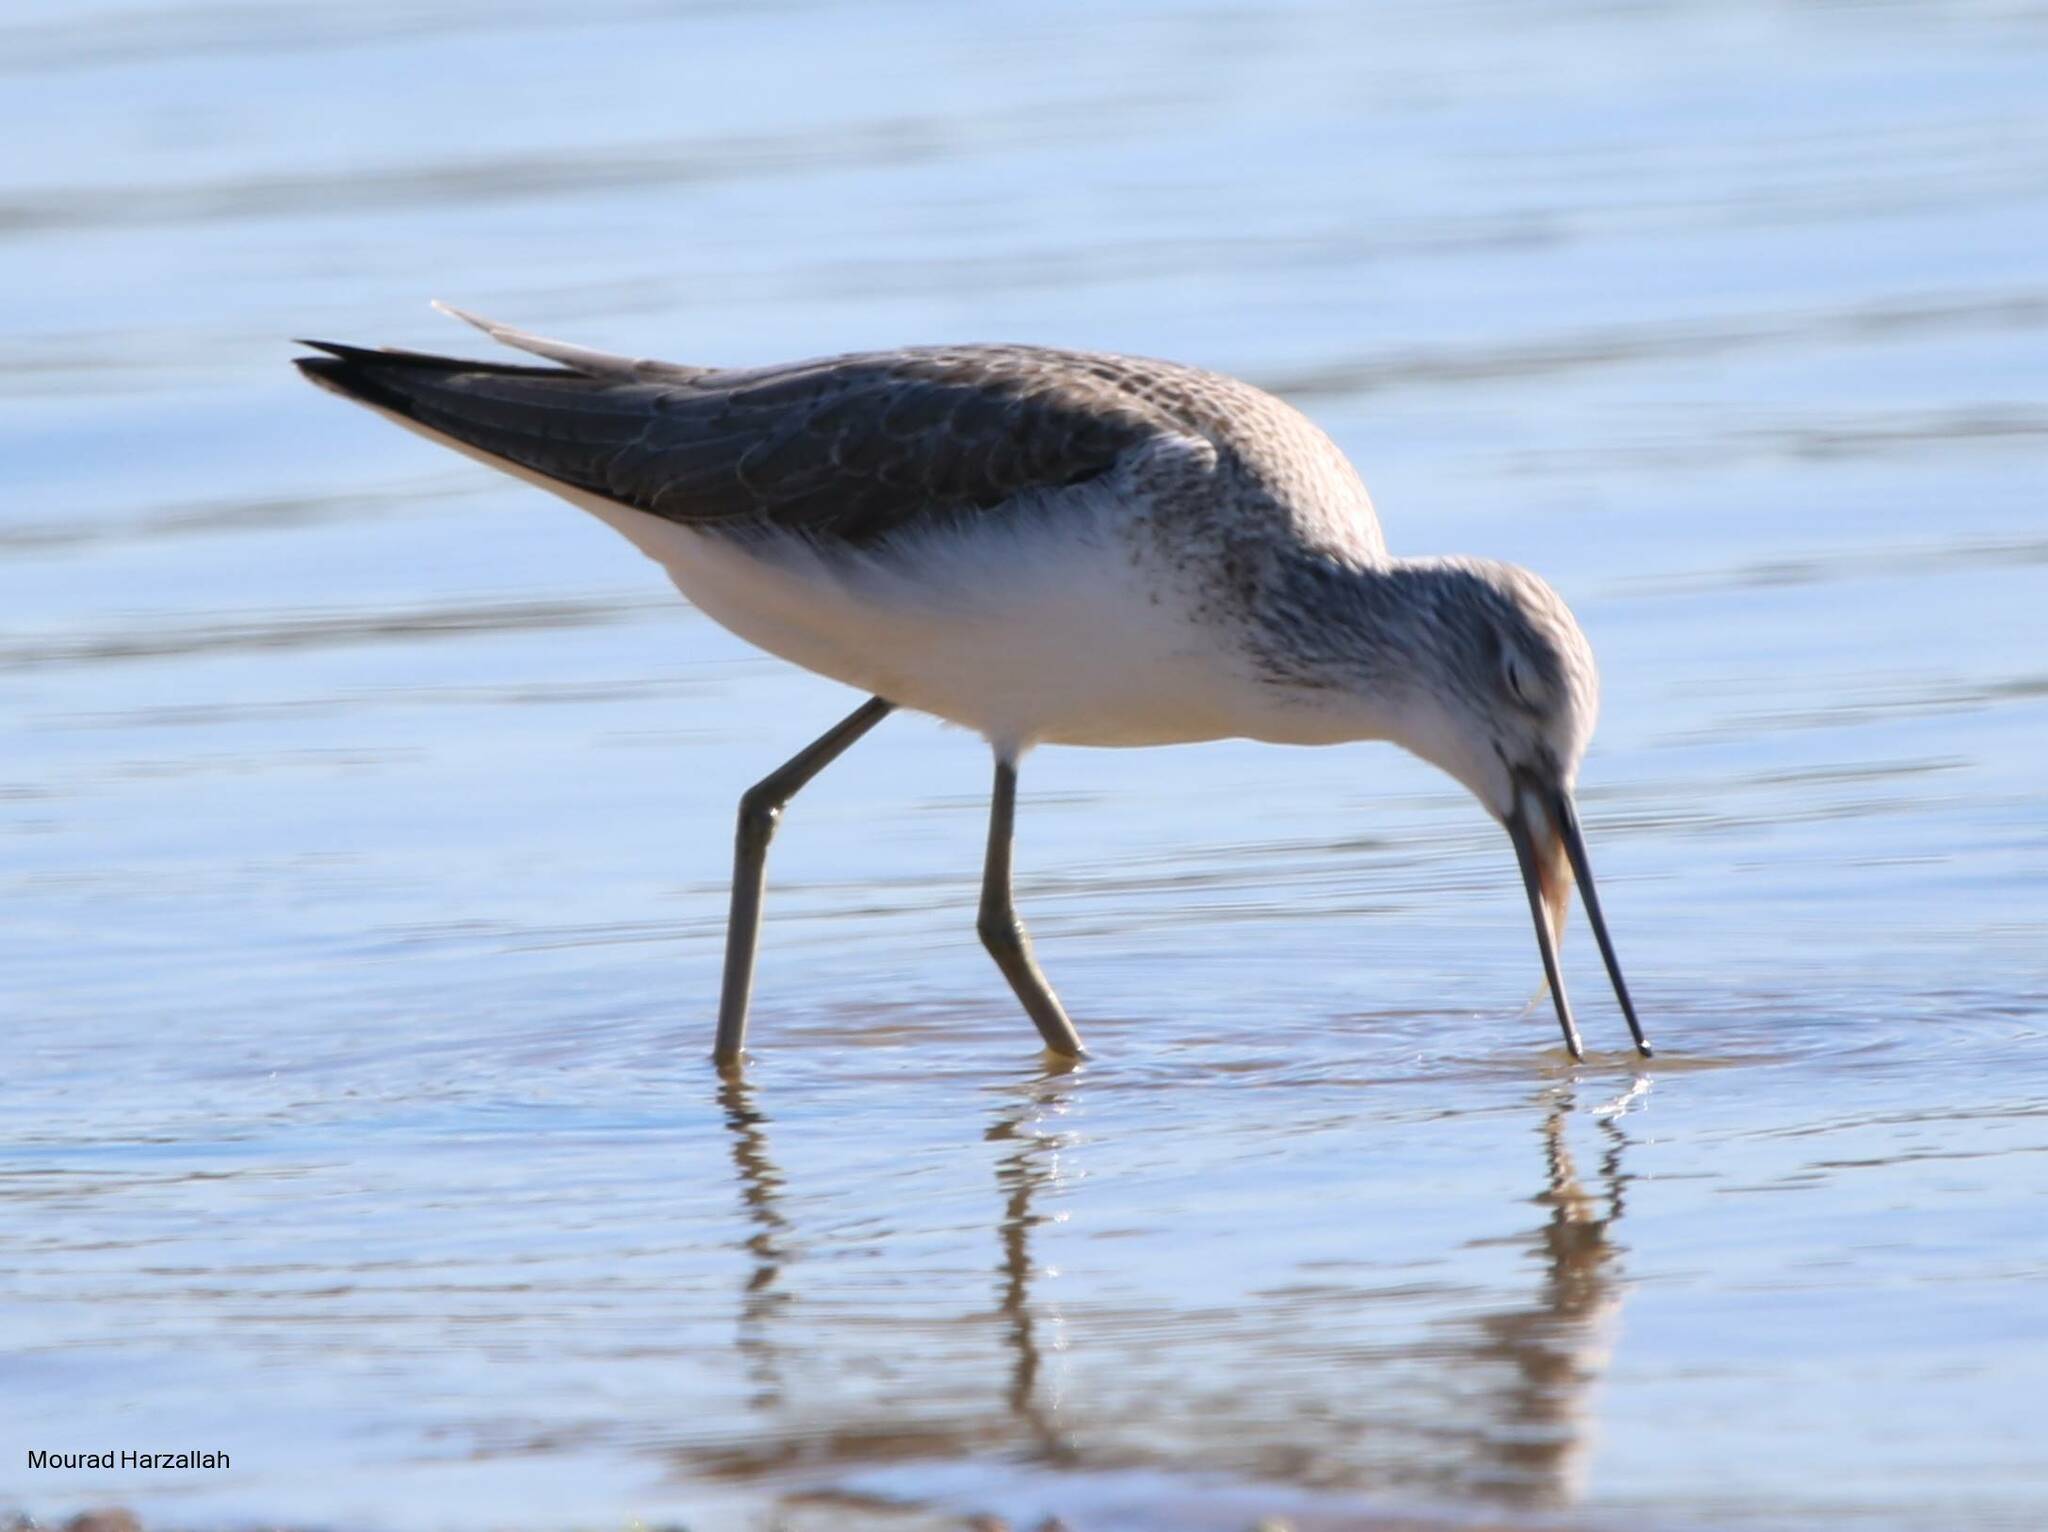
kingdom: Animalia
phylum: Chordata
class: Aves
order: Charadriiformes
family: Scolopacidae
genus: Tringa
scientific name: Tringa nebularia
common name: Common greenshank
